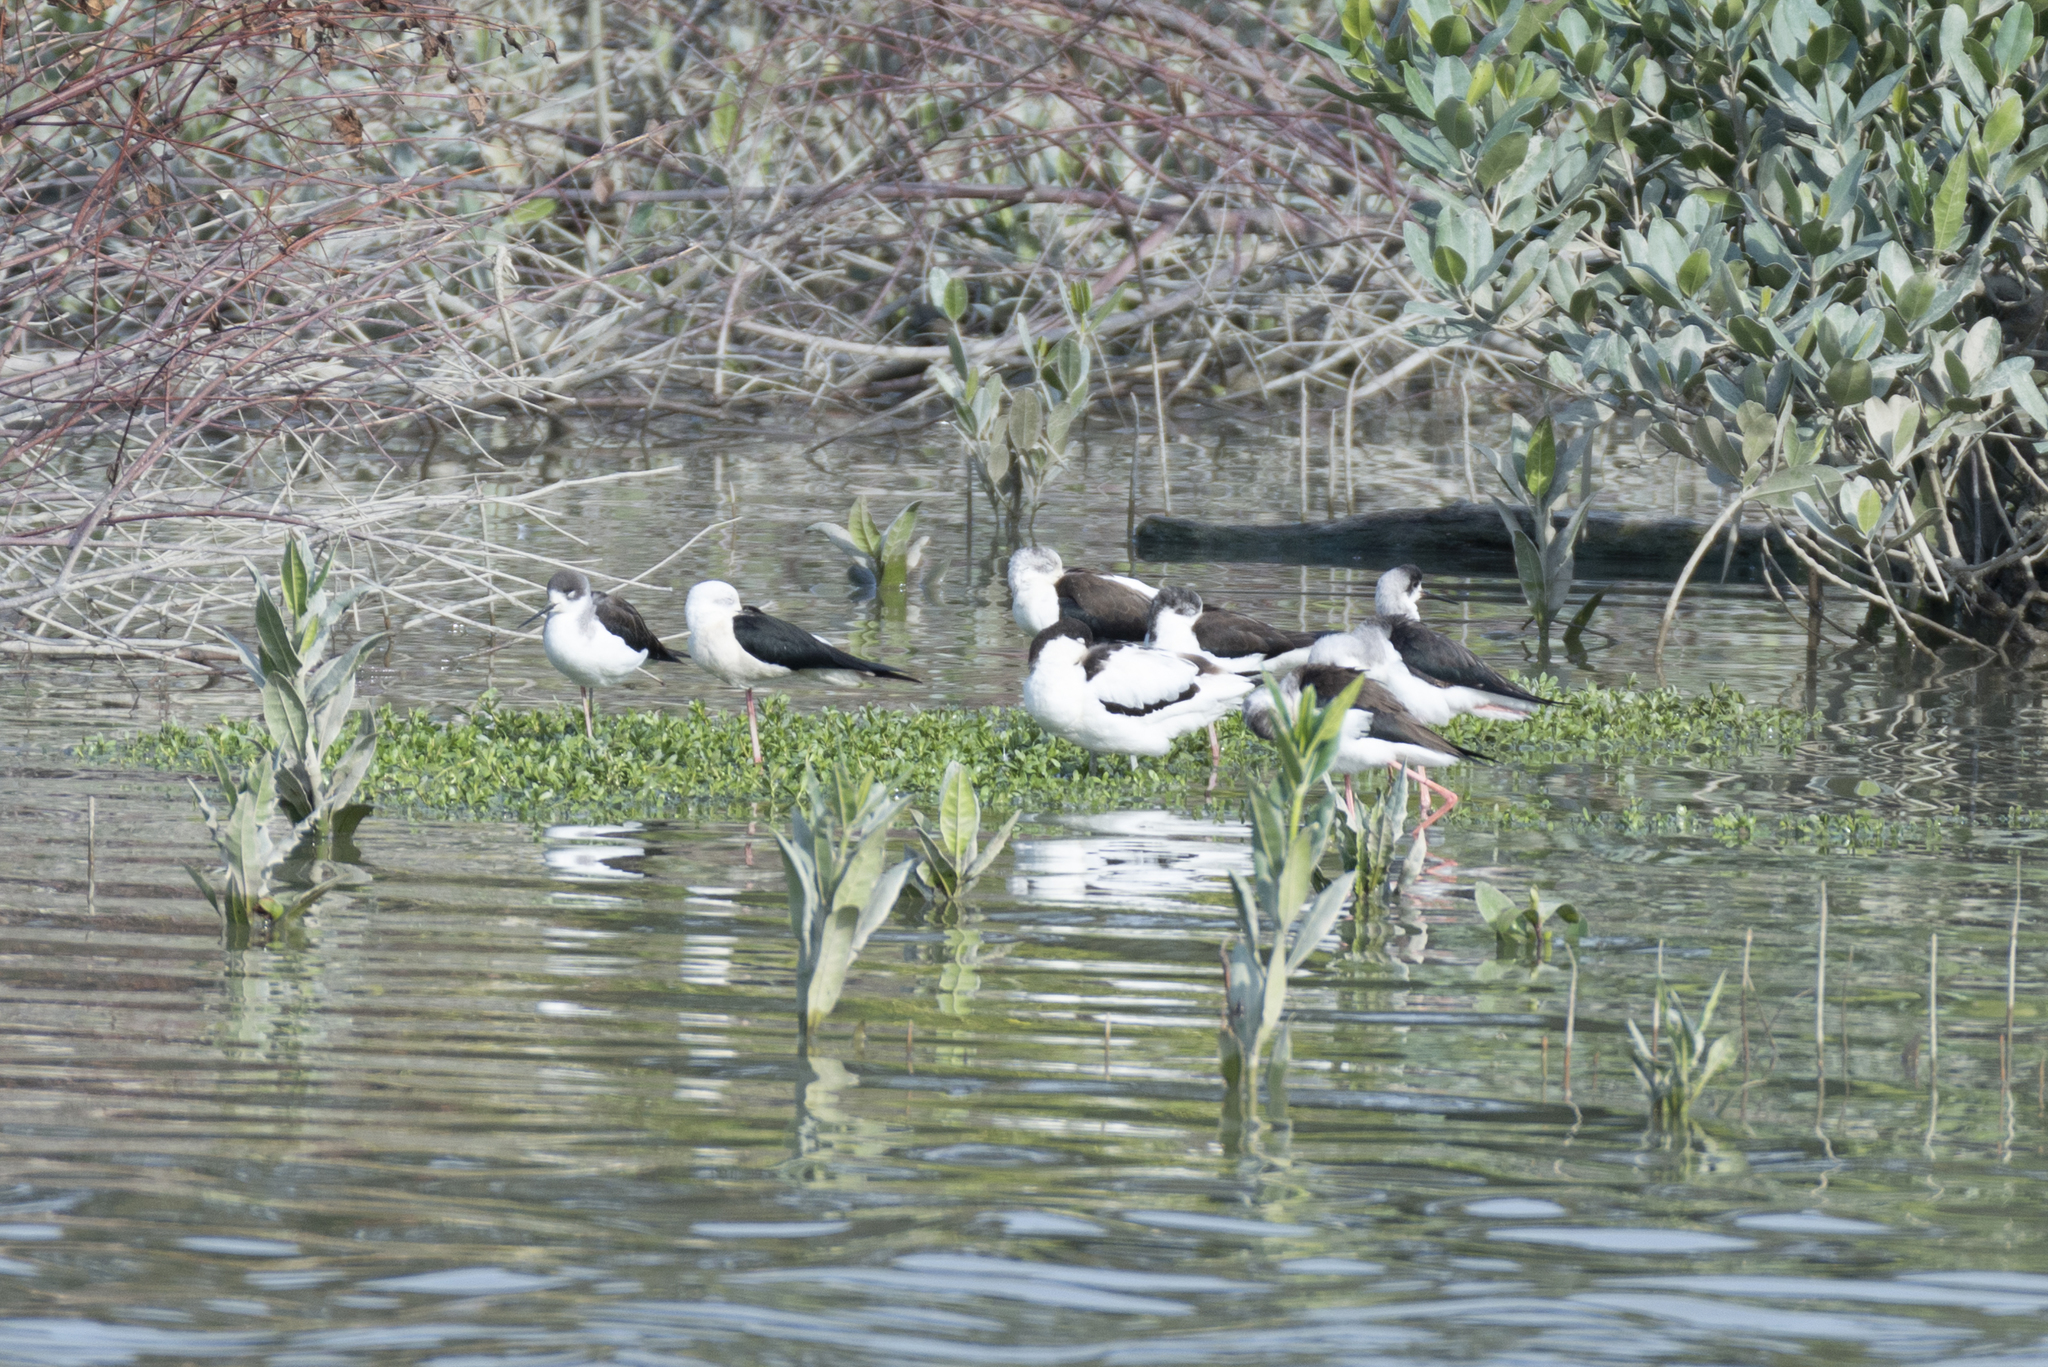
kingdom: Animalia
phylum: Chordata
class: Aves
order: Charadriiformes
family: Recurvirostridae
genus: Himantopus
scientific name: Himantopus himantopus
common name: Black-winged stilt
